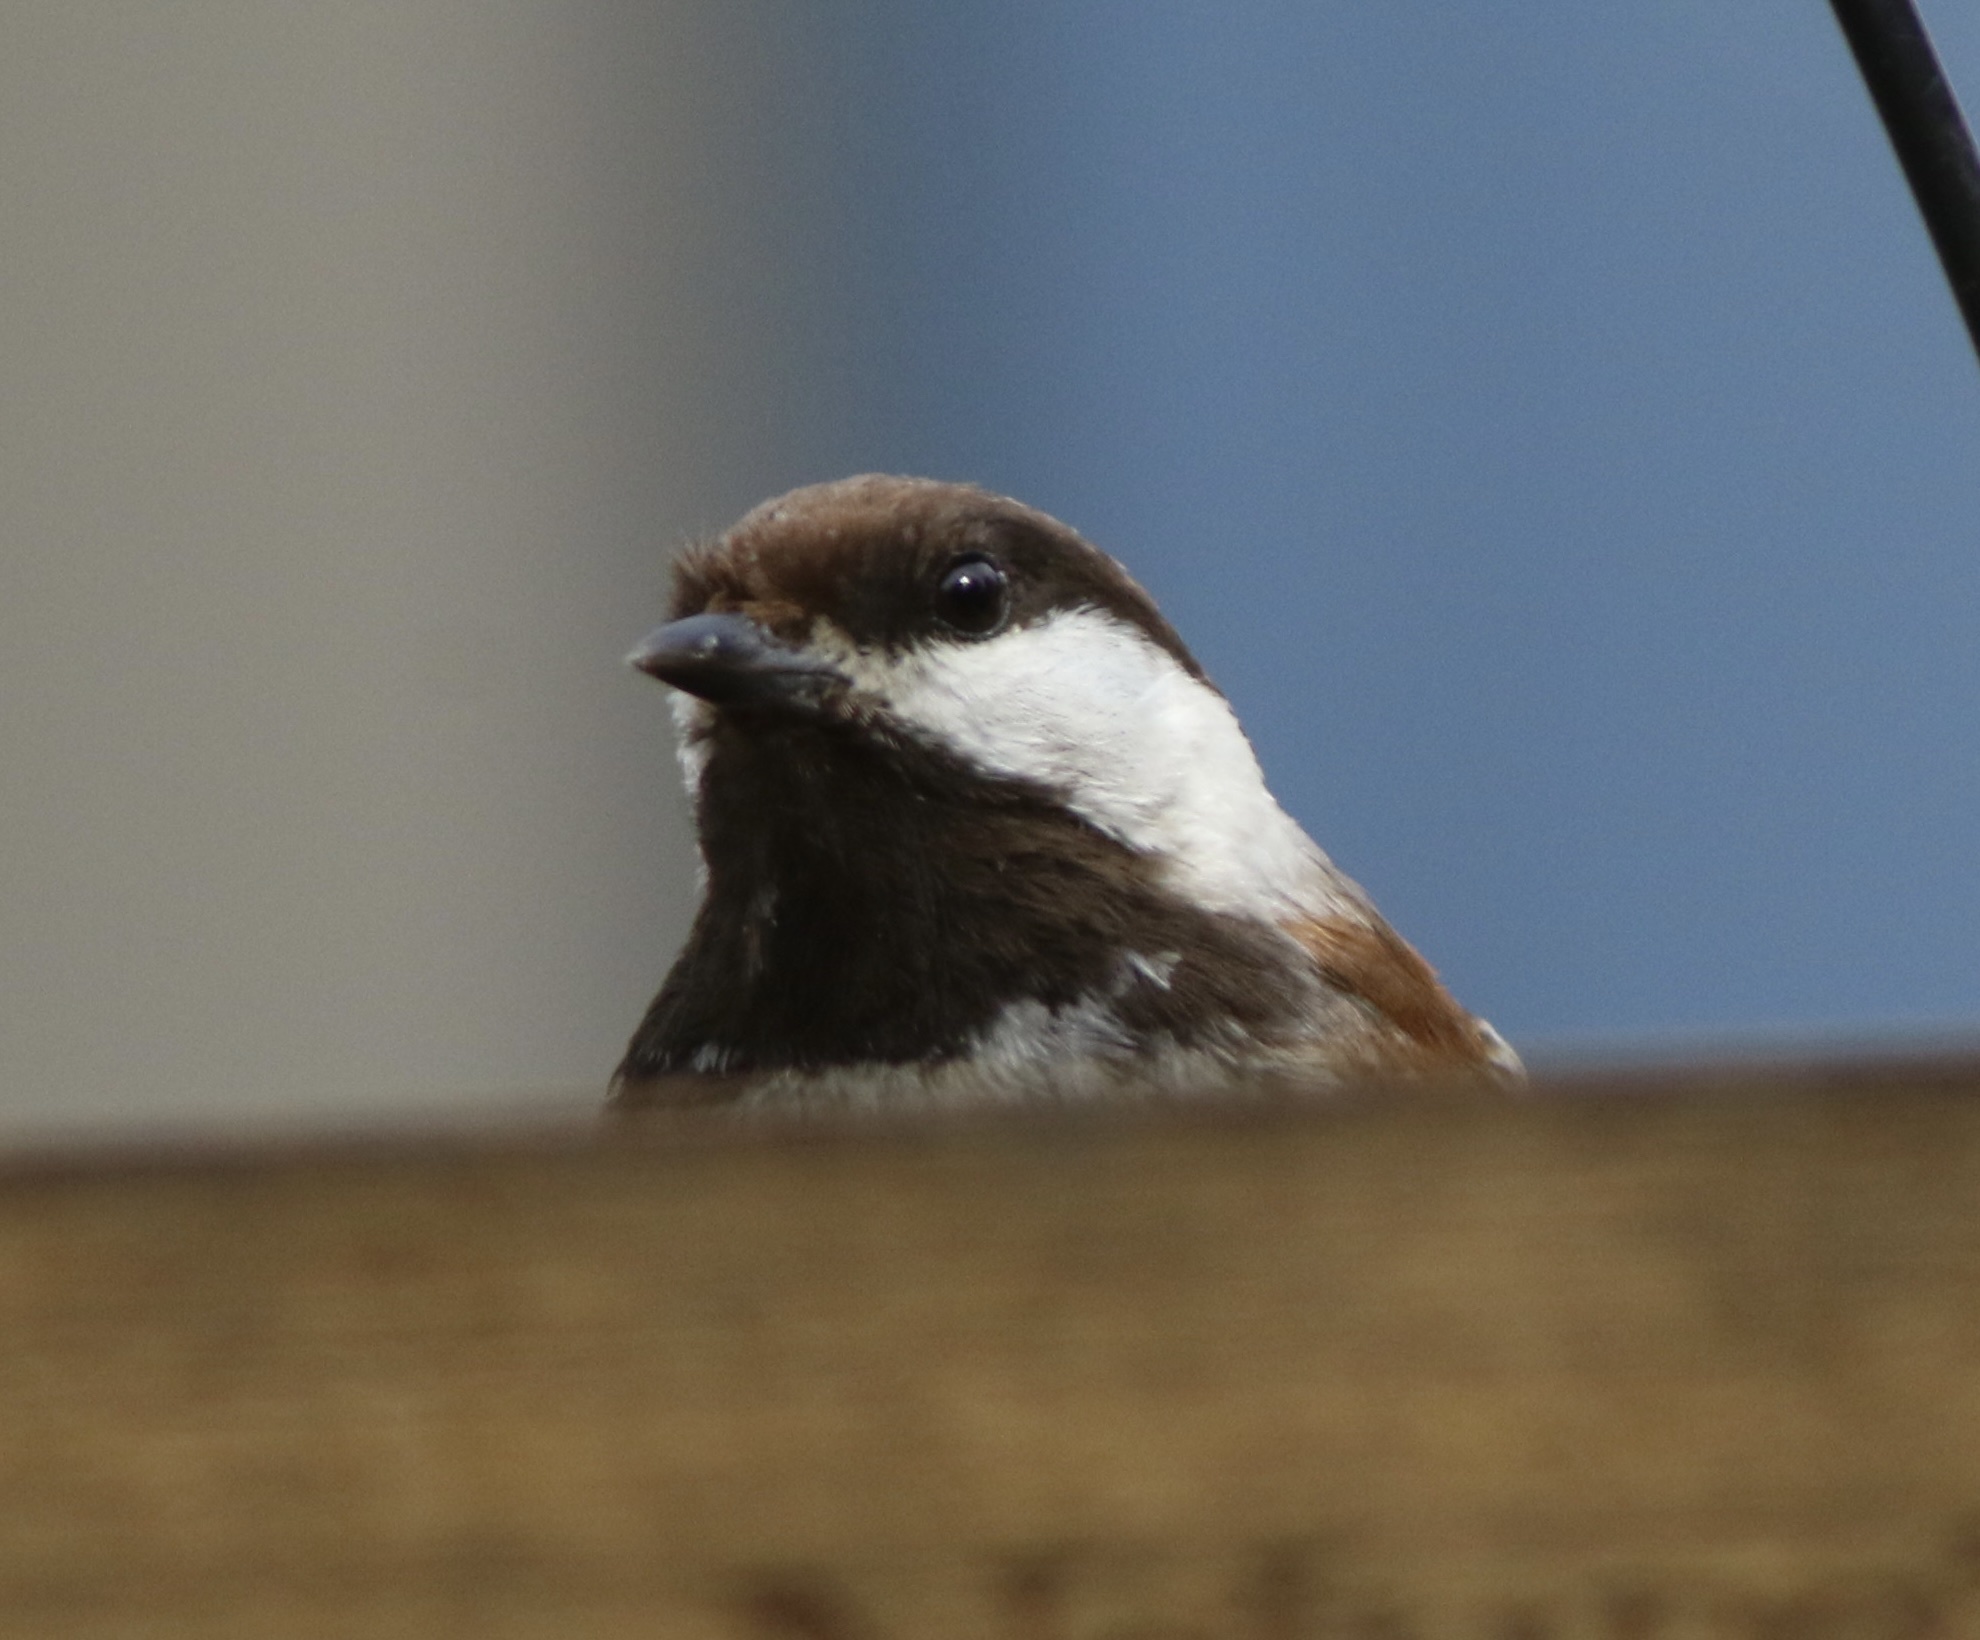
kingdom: Animalia
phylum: Chordata
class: Aves
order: Passeriformes
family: Paridae
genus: Poecile
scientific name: Poecile rufescens
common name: Chestnut-backed chickadee
